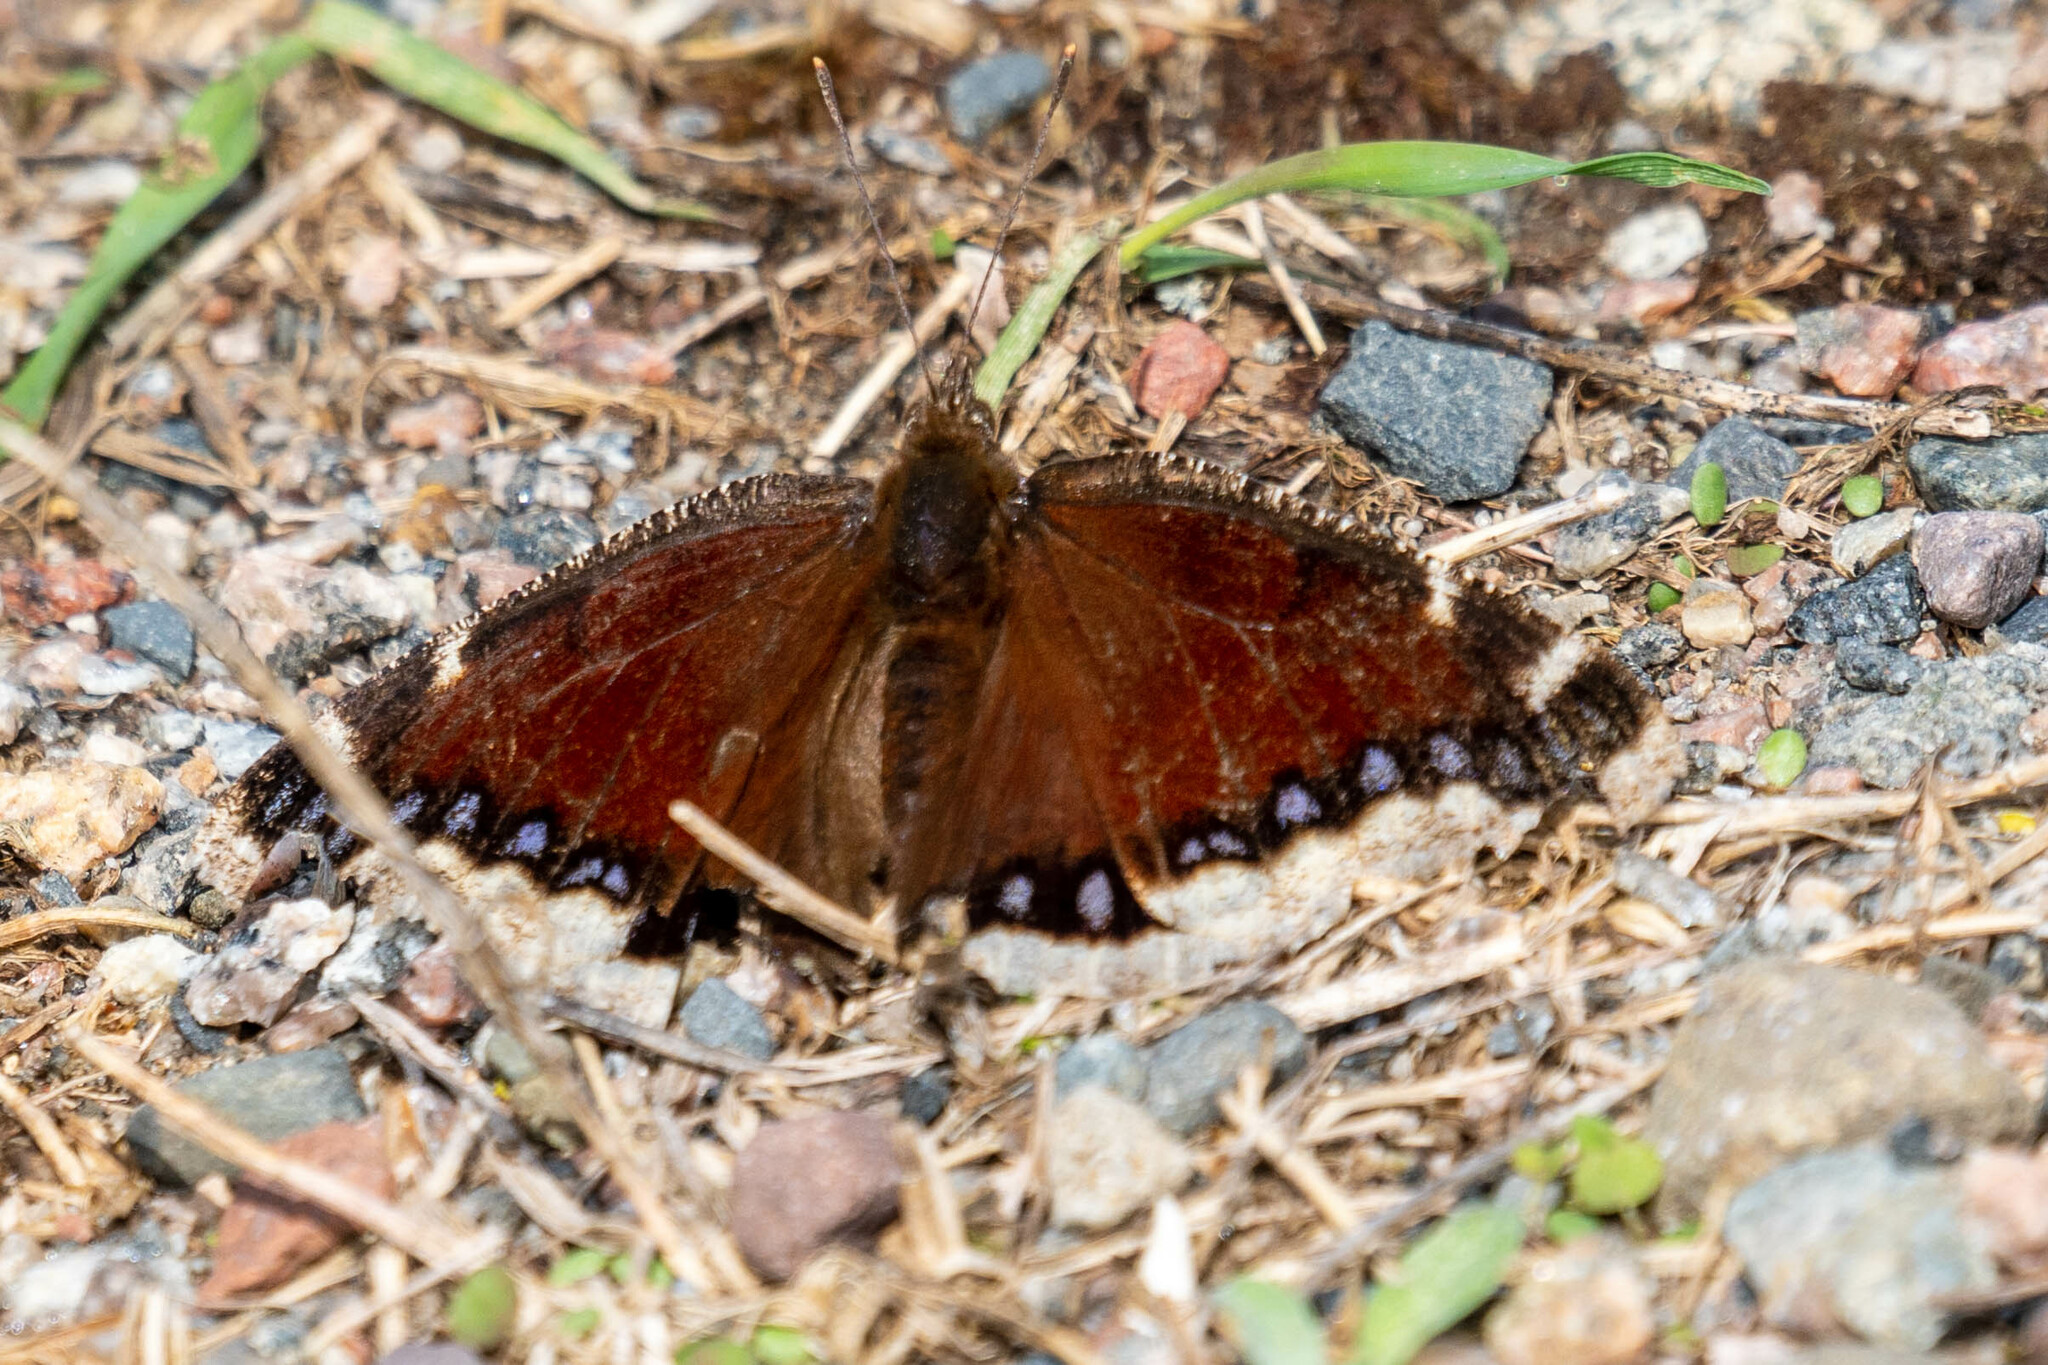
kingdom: Animalia
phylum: Arthropoda
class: Insecta
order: Lepidoptera
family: Nymphalidae
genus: Nymphalis
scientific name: Nymphalis antiopa
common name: Camberwell beauty
